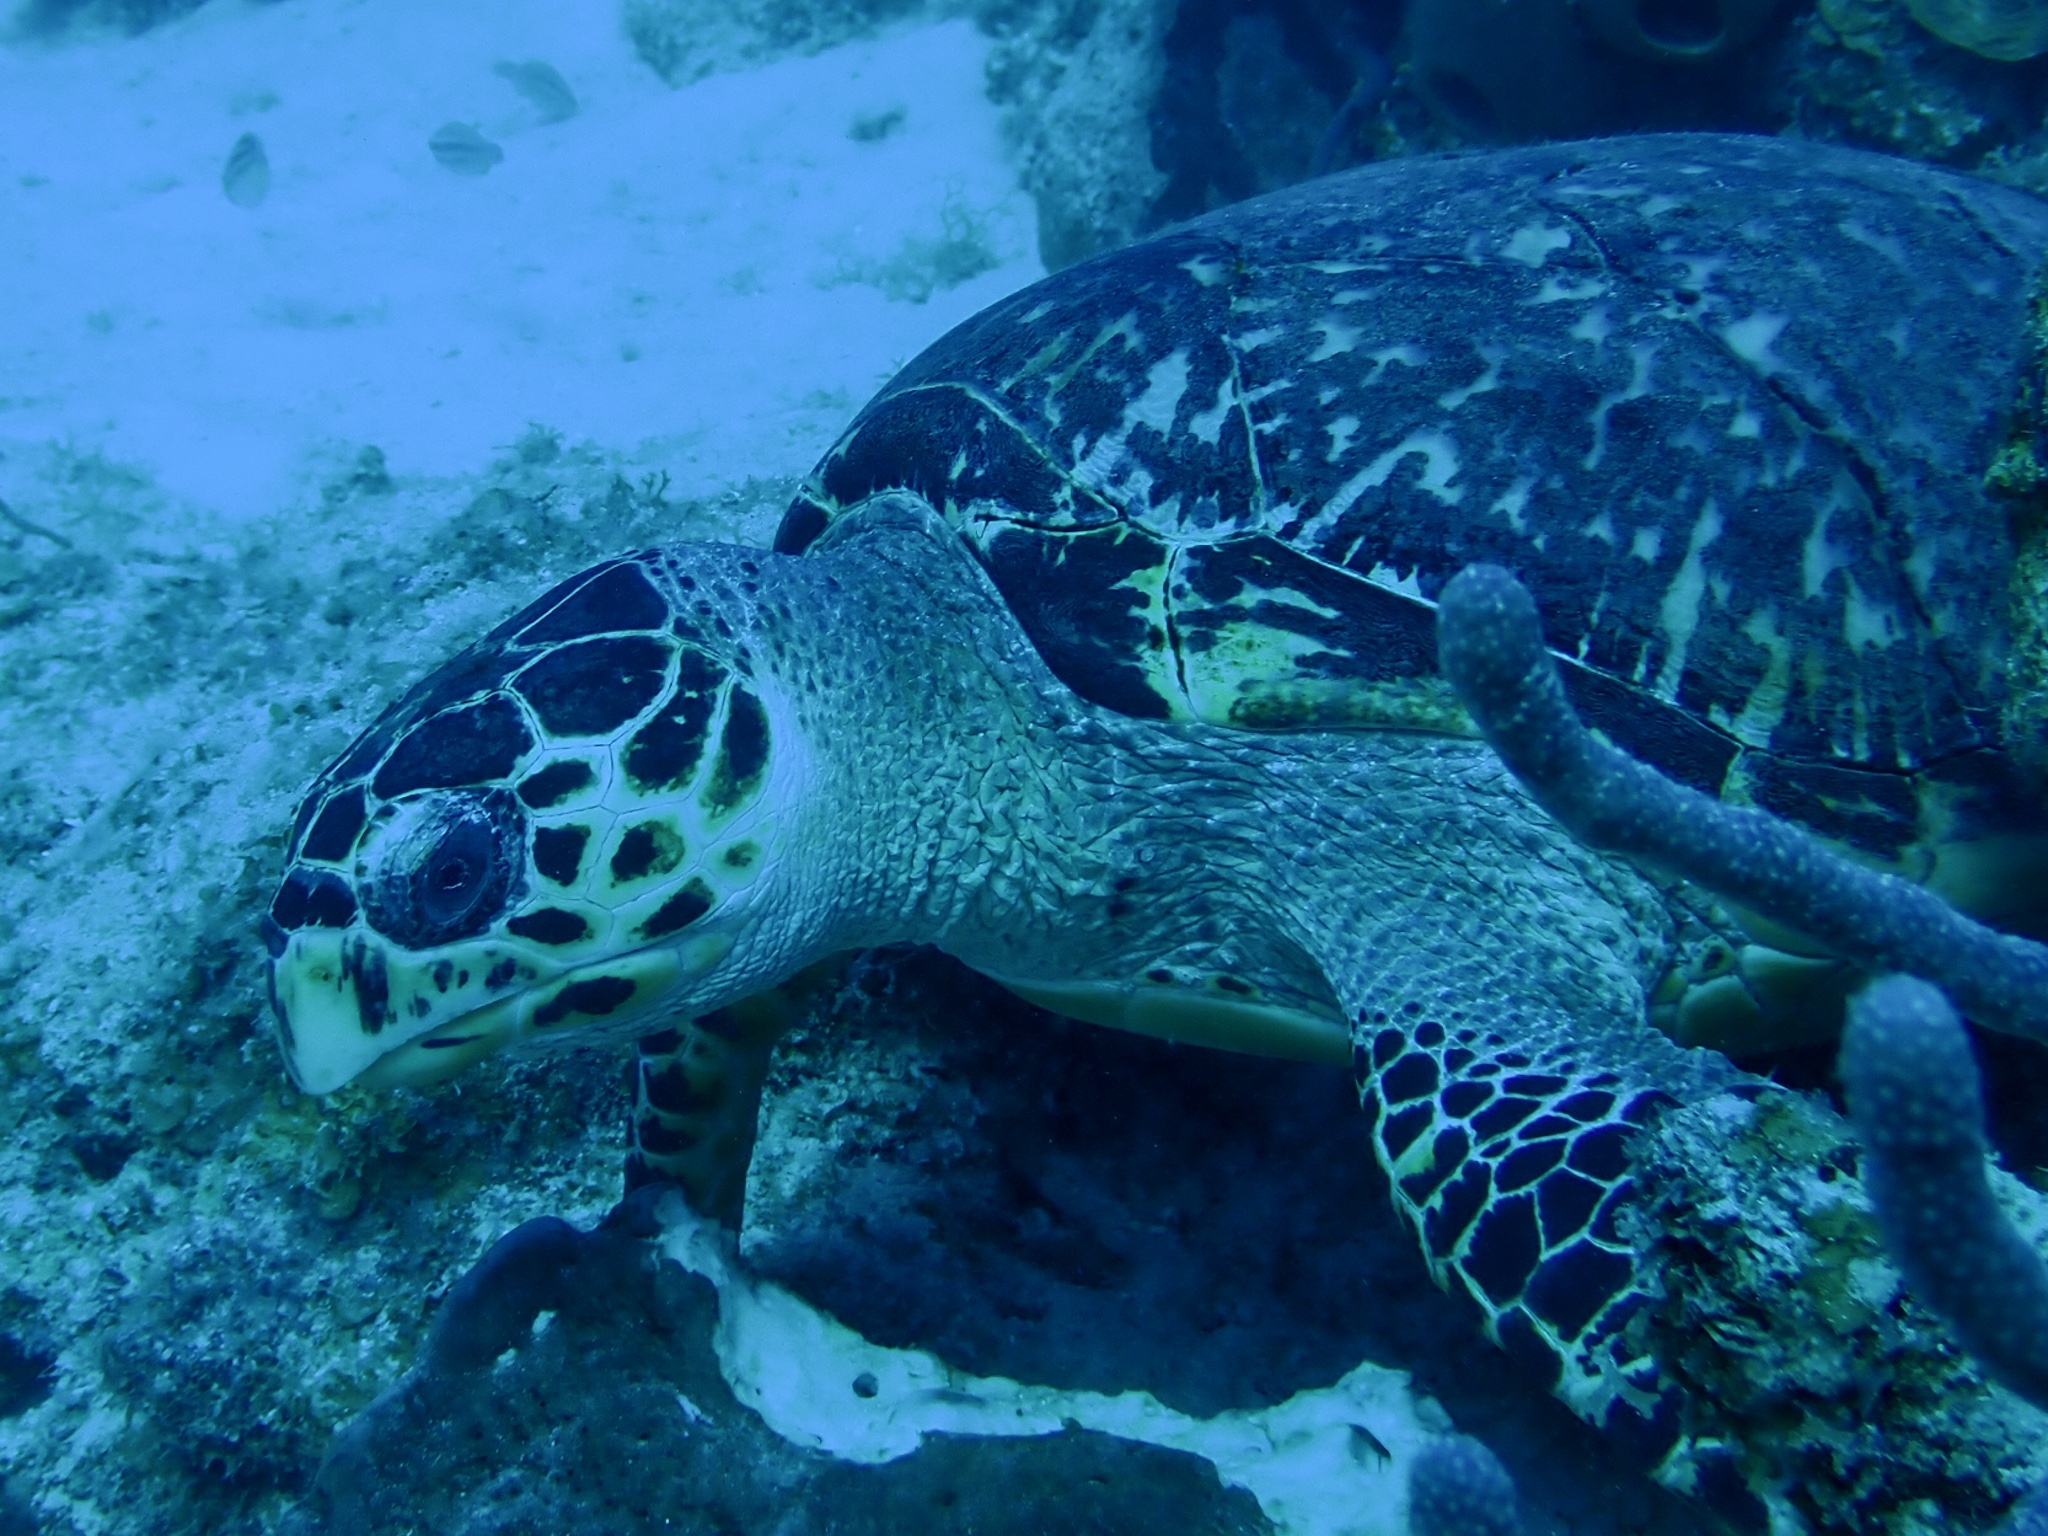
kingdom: Animalia
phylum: Chordata
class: Testudines
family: Cheloniidae
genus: Eretmochelys
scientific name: Eretmochelys imbricata
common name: Hawksbill turtle
